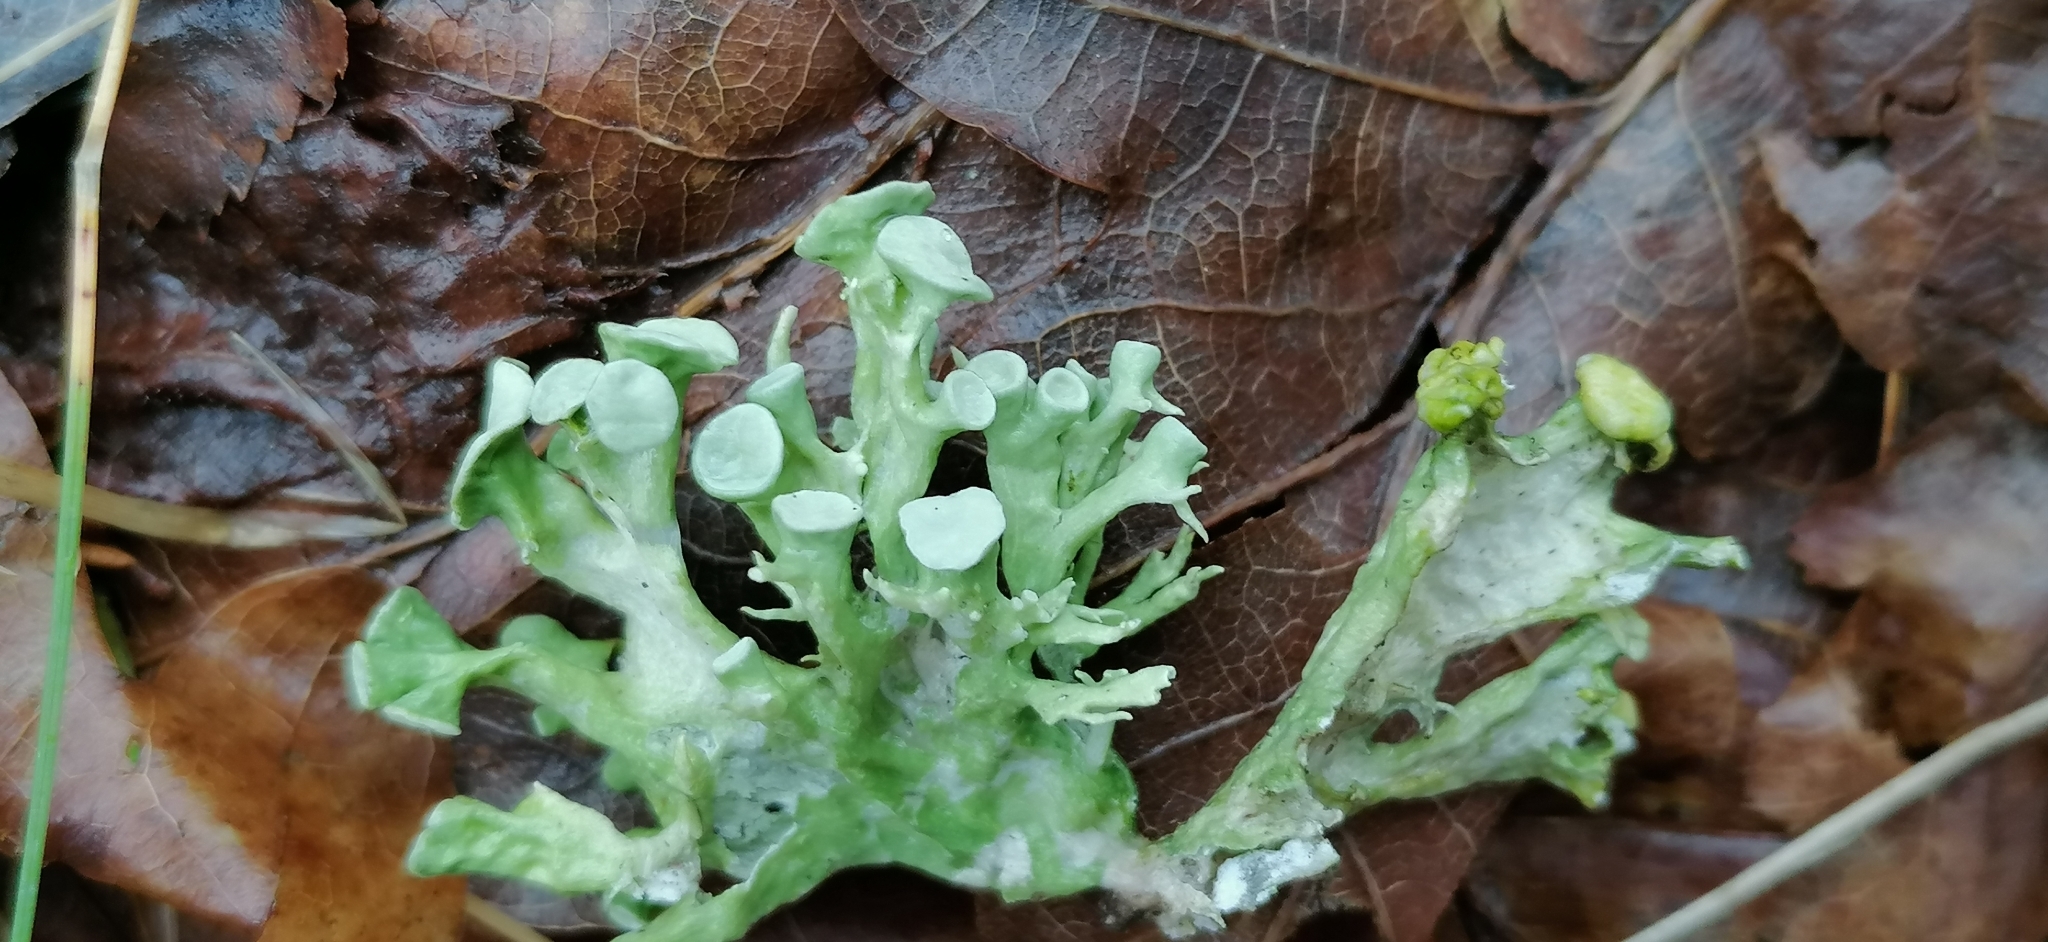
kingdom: Fungi
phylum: Ascomycota
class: Lecanoromycetes
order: Lecanorales
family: Ramalinaceae
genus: Ramalina
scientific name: Ramalina fastigiata
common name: Dotted ribbon lichen
